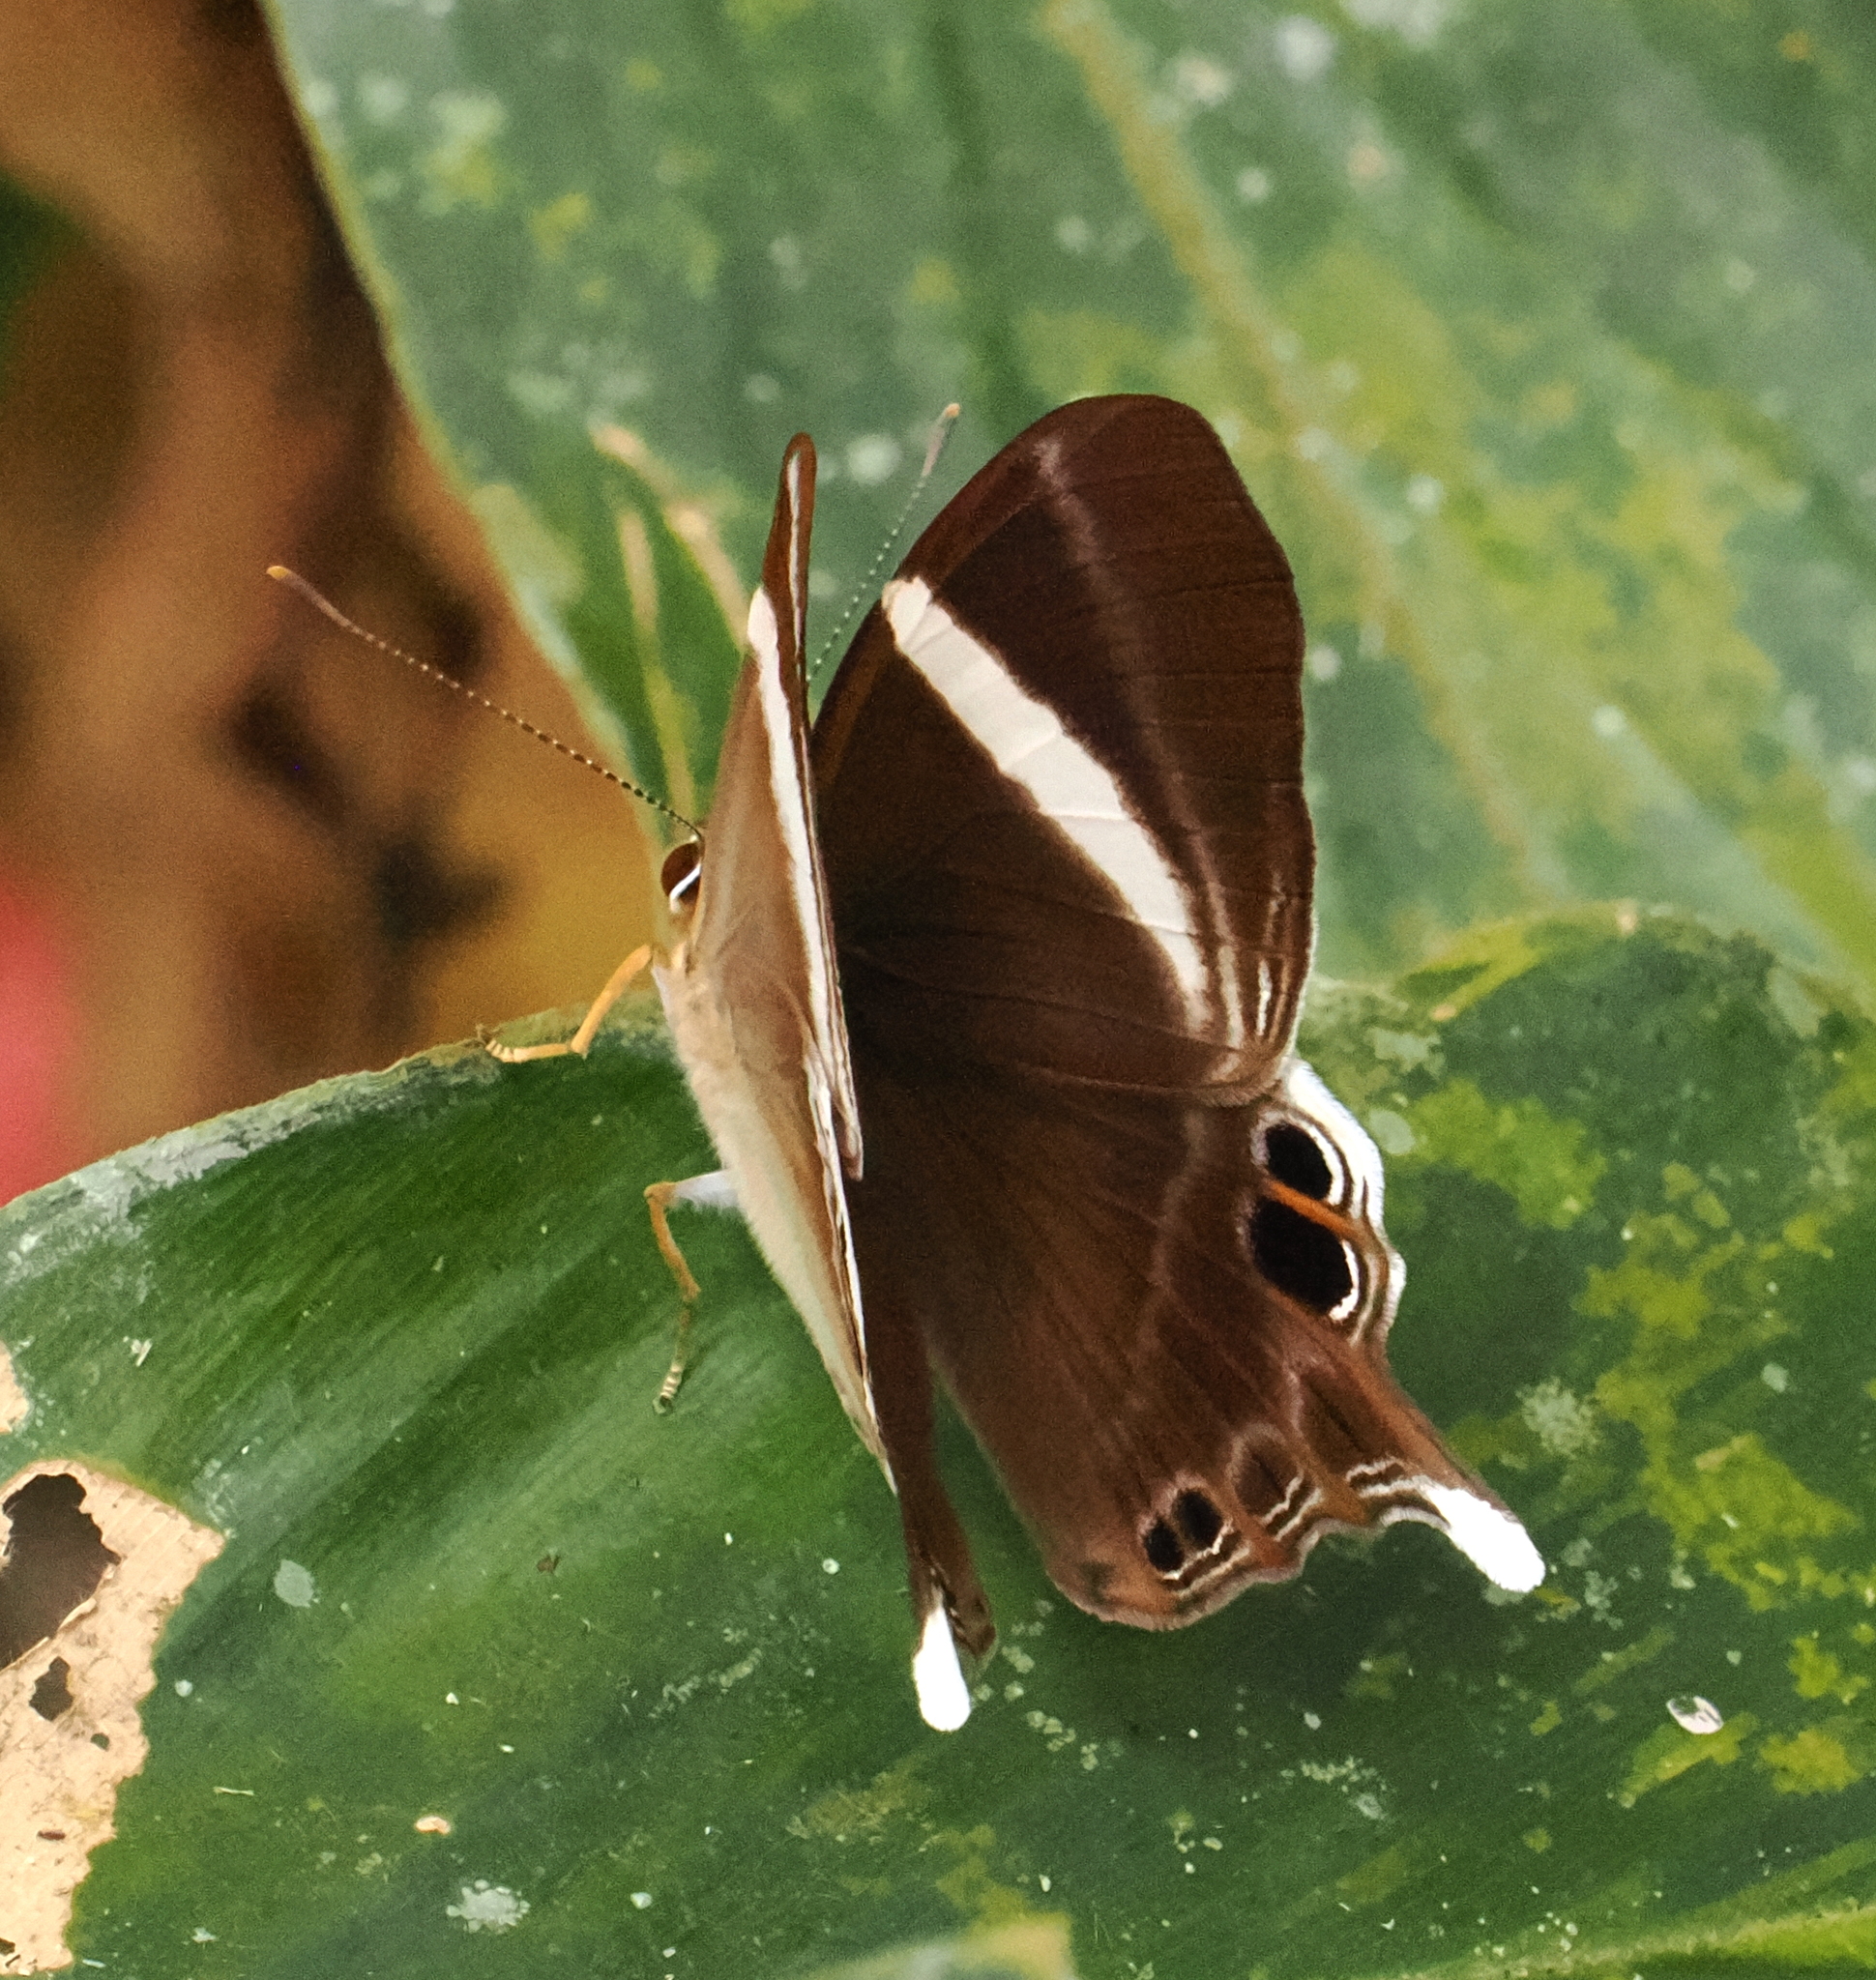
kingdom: Animalia
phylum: Arthropoda
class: Insecta
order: Lepidoptera
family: Lycaenidae
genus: Abisara
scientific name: Abisara neophron
